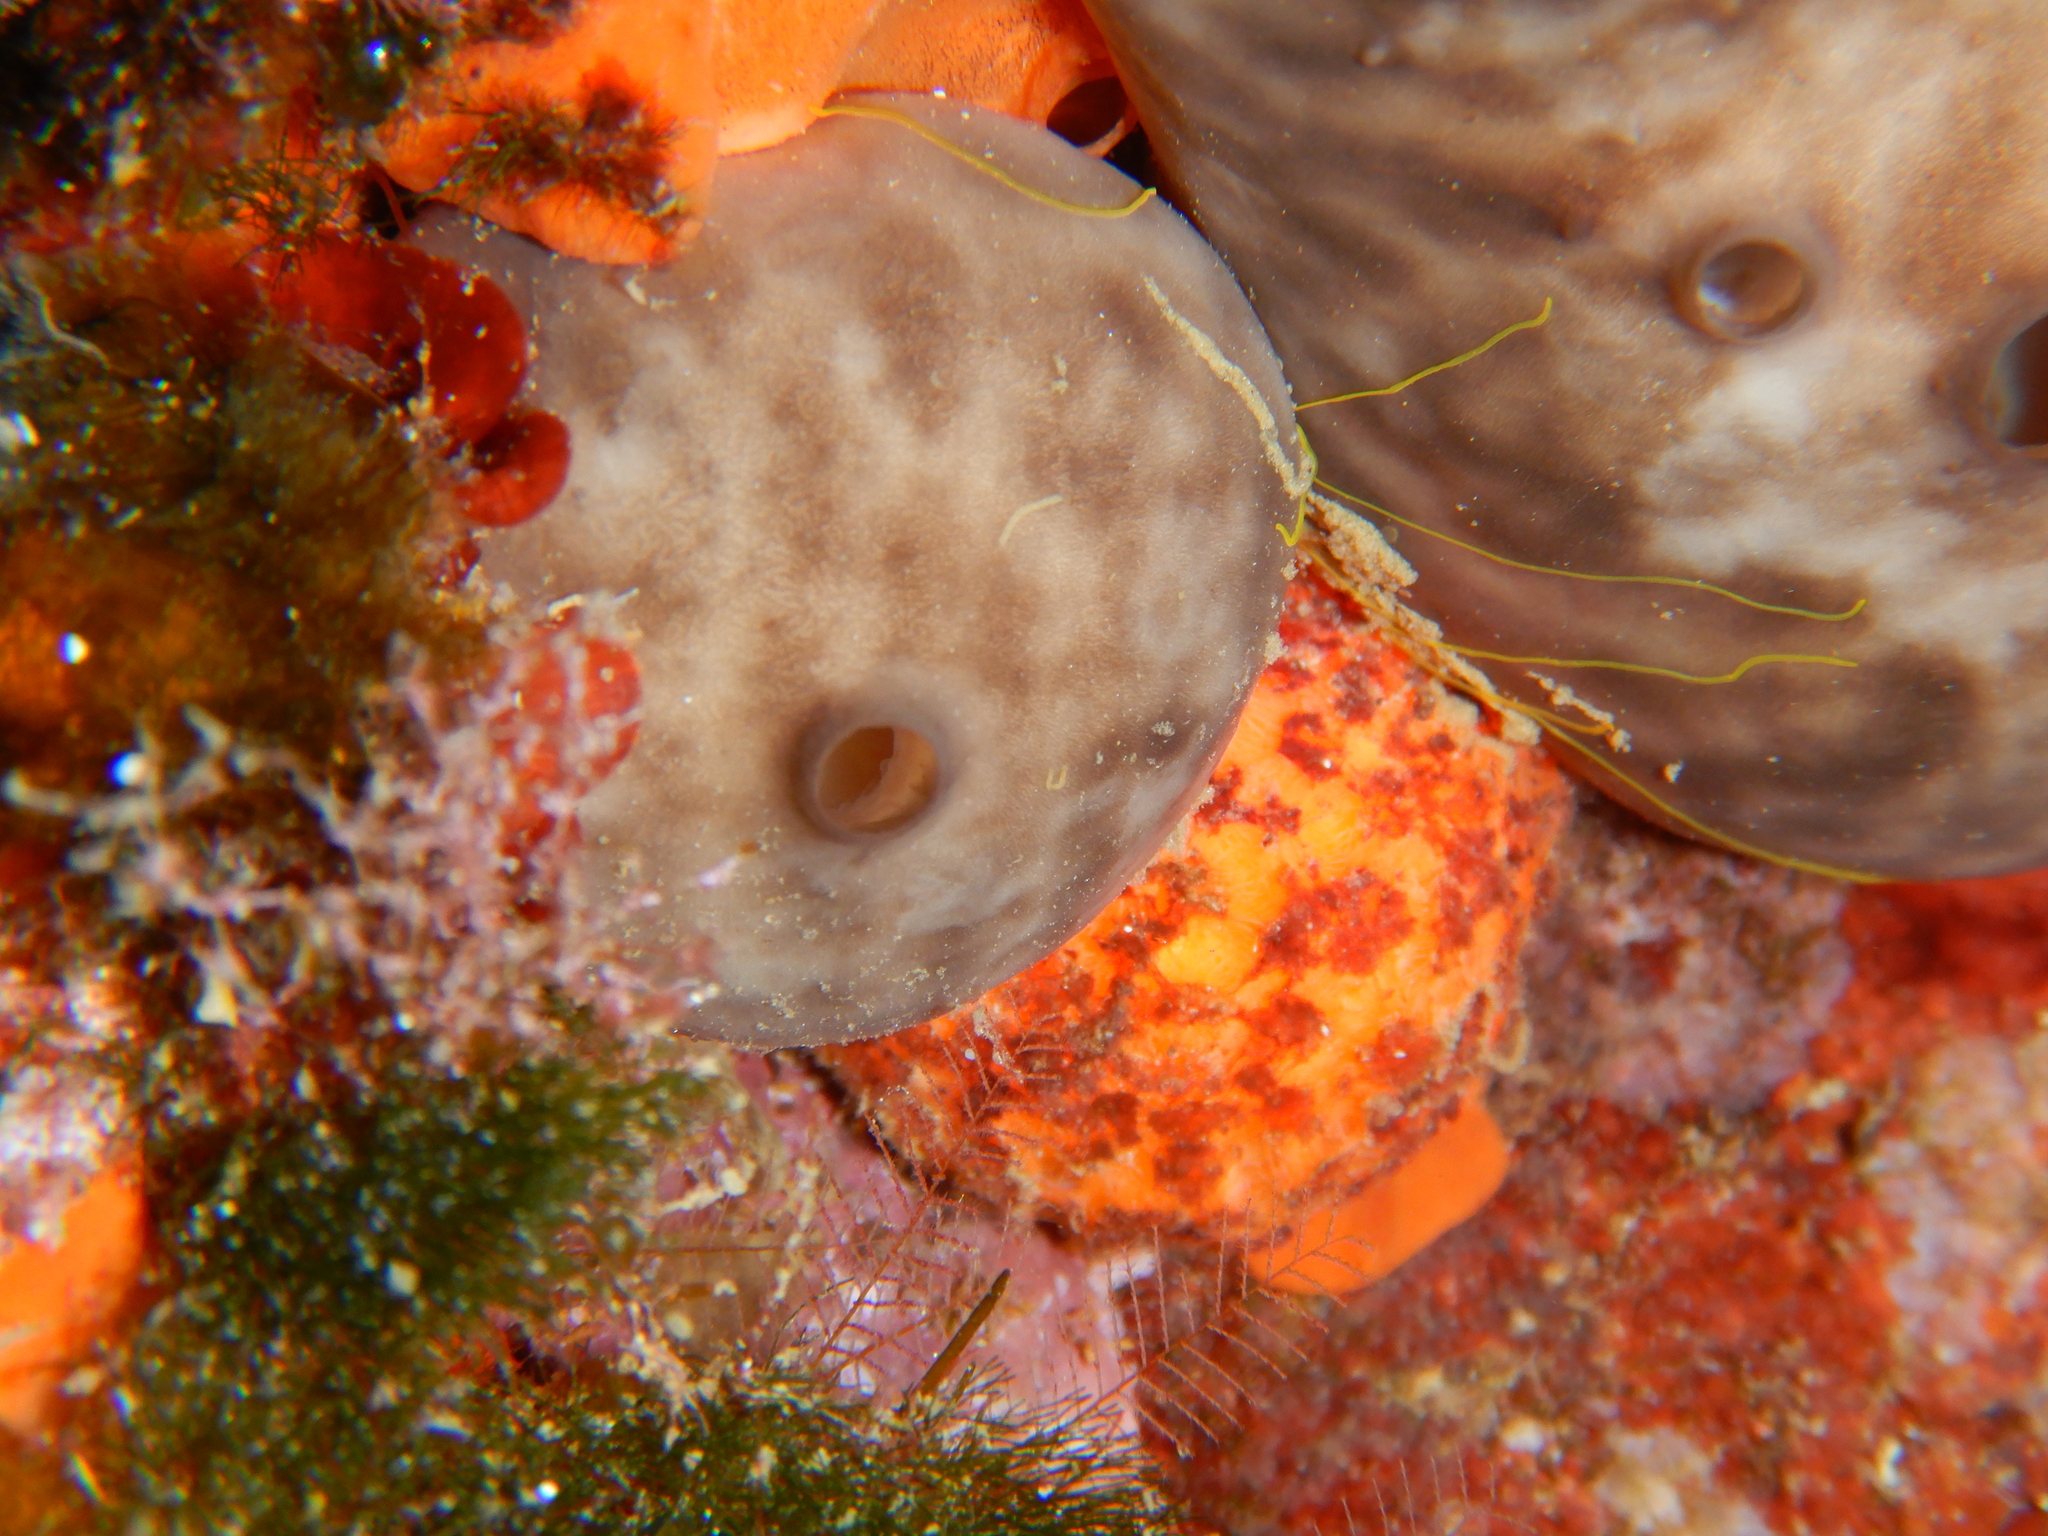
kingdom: Animalia
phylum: Porifera
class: Demospongiae
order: Tethyida
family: Tethyidae
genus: Tethya
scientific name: Tethya aurantium
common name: Golf ball sponge
